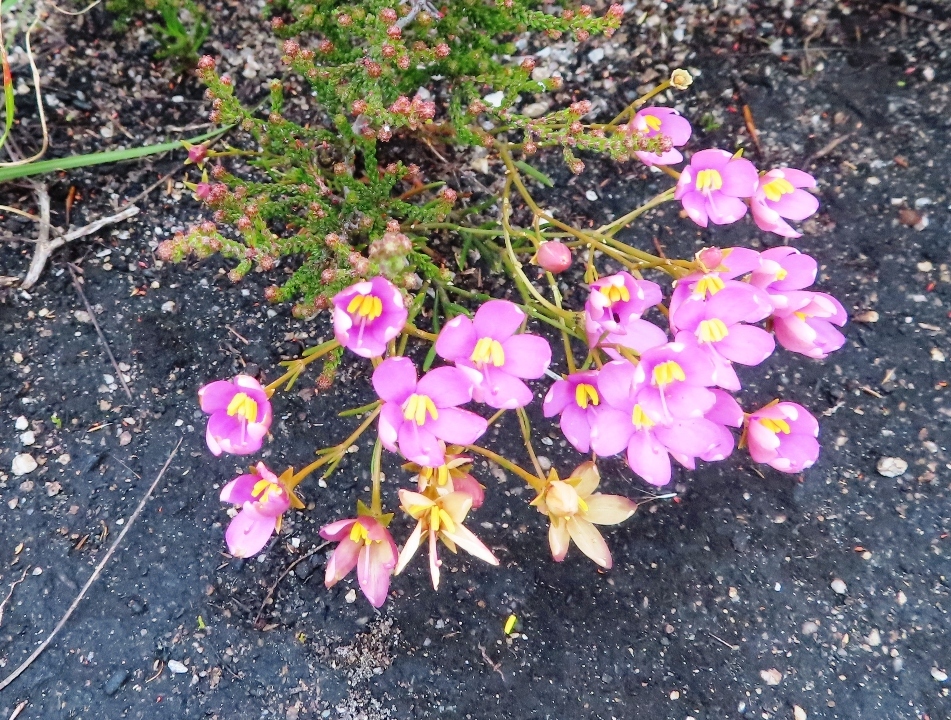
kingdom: Plantae
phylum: Tracheophyta
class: Magnoliopsida
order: Gentianales
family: Gentianaceae
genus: Chironia
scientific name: Chironia linoides
